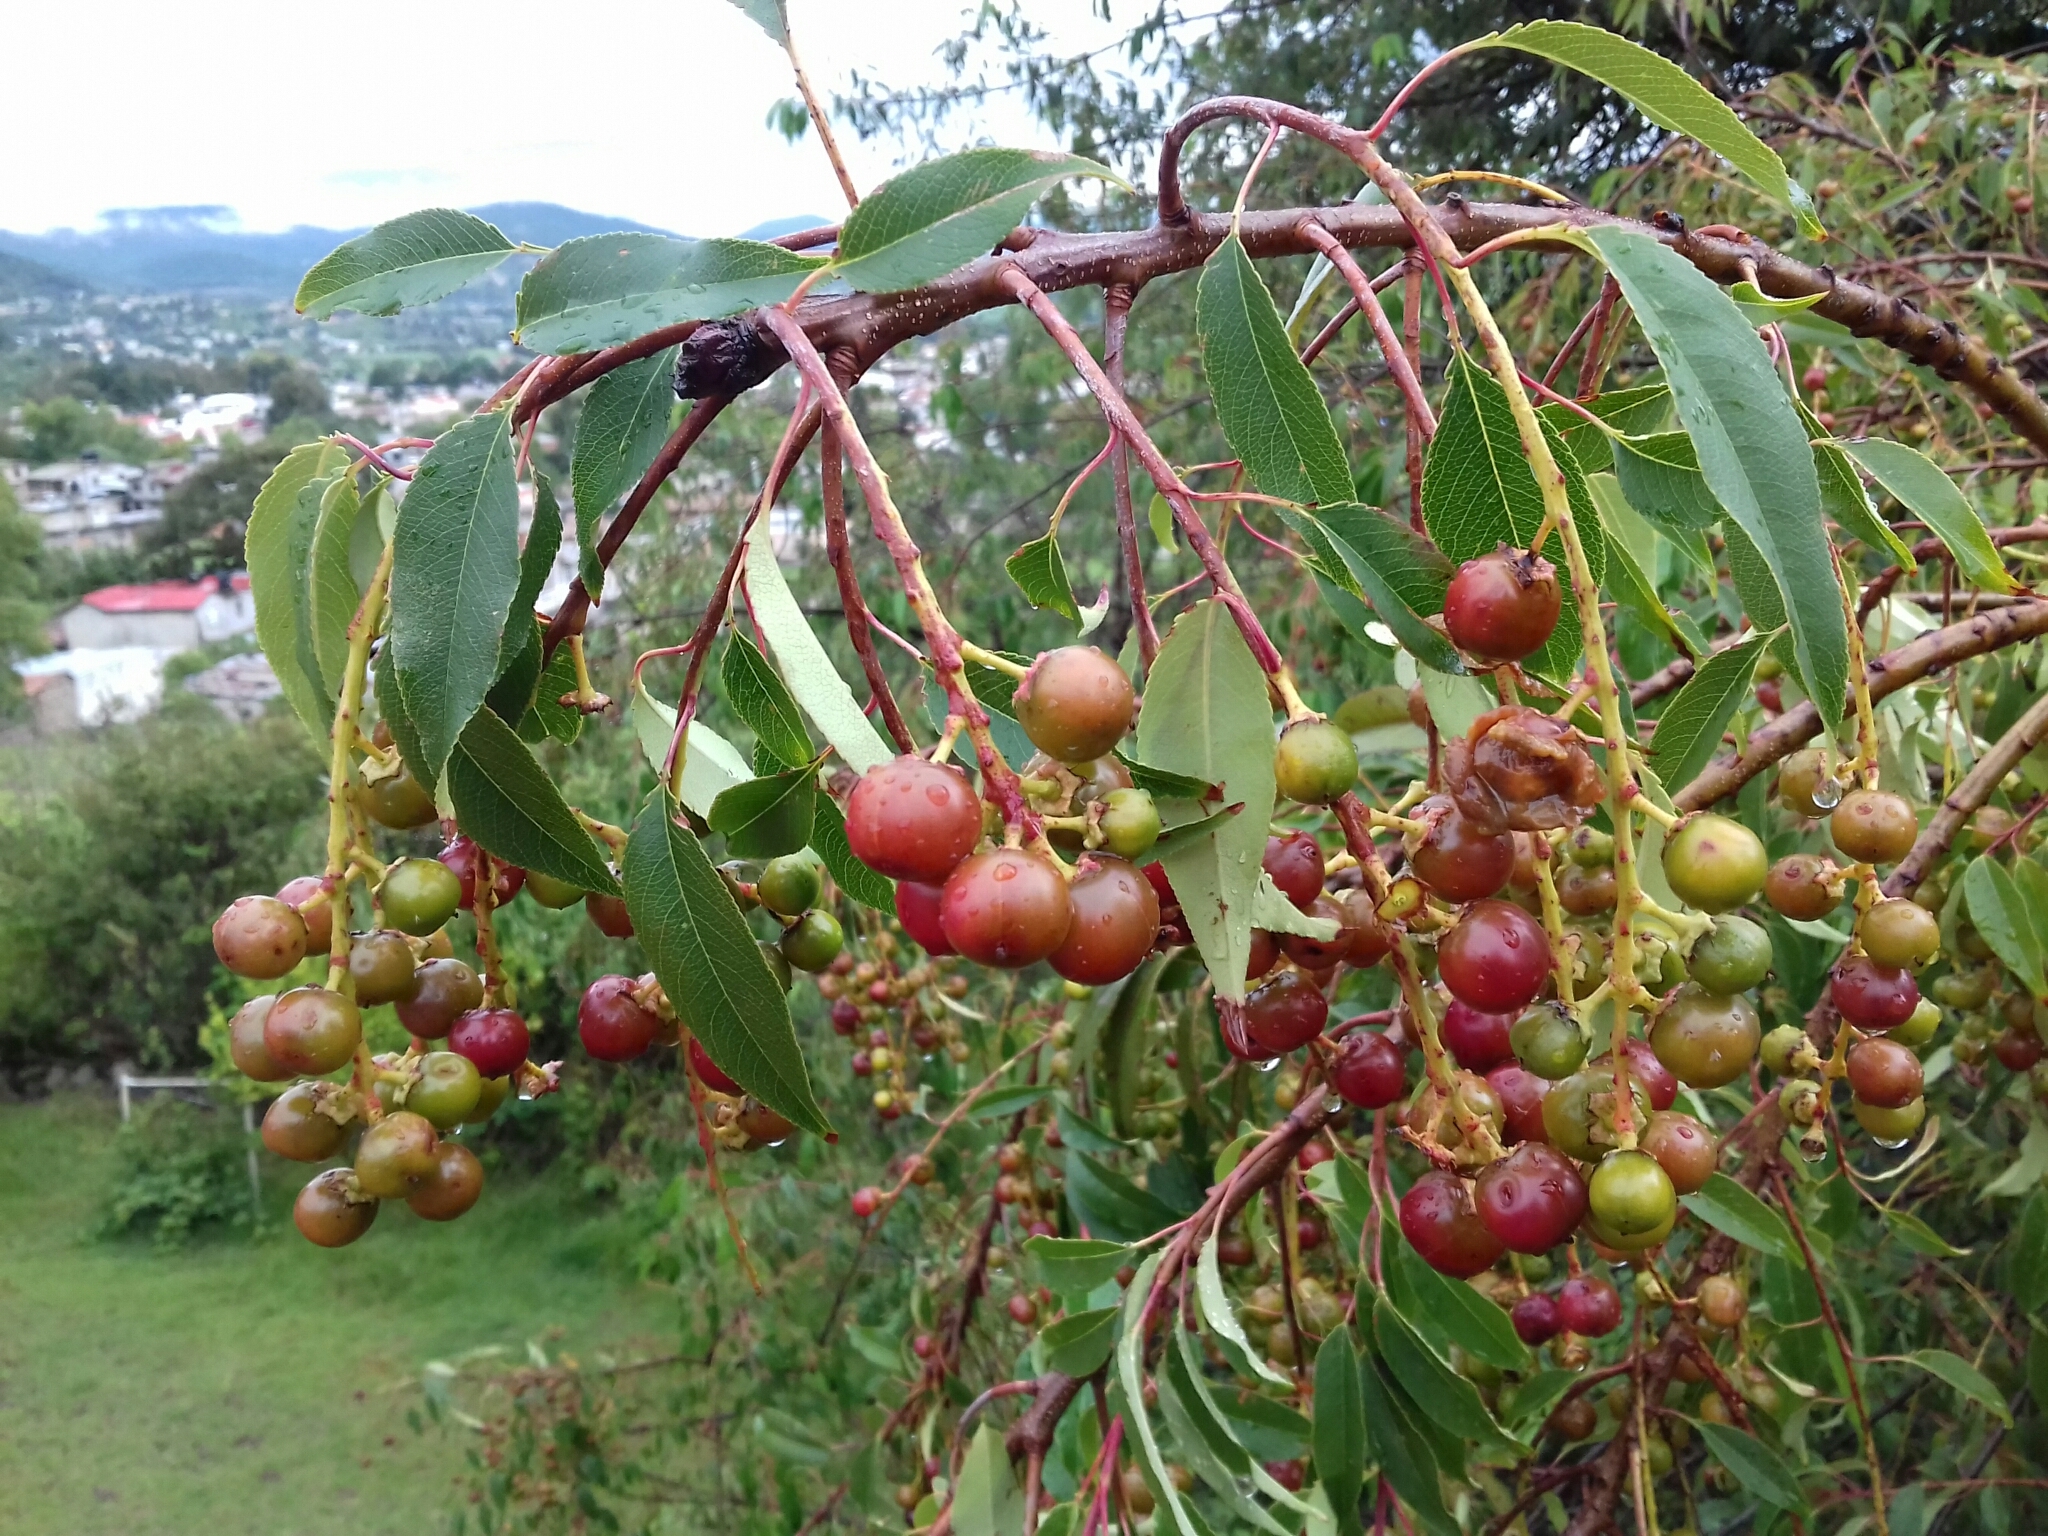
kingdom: Plantae
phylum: Tracheophyta
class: Magnoliopsida
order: Rosales
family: Rosaceae
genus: Prunus
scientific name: Prunus serotina
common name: Black cherry
